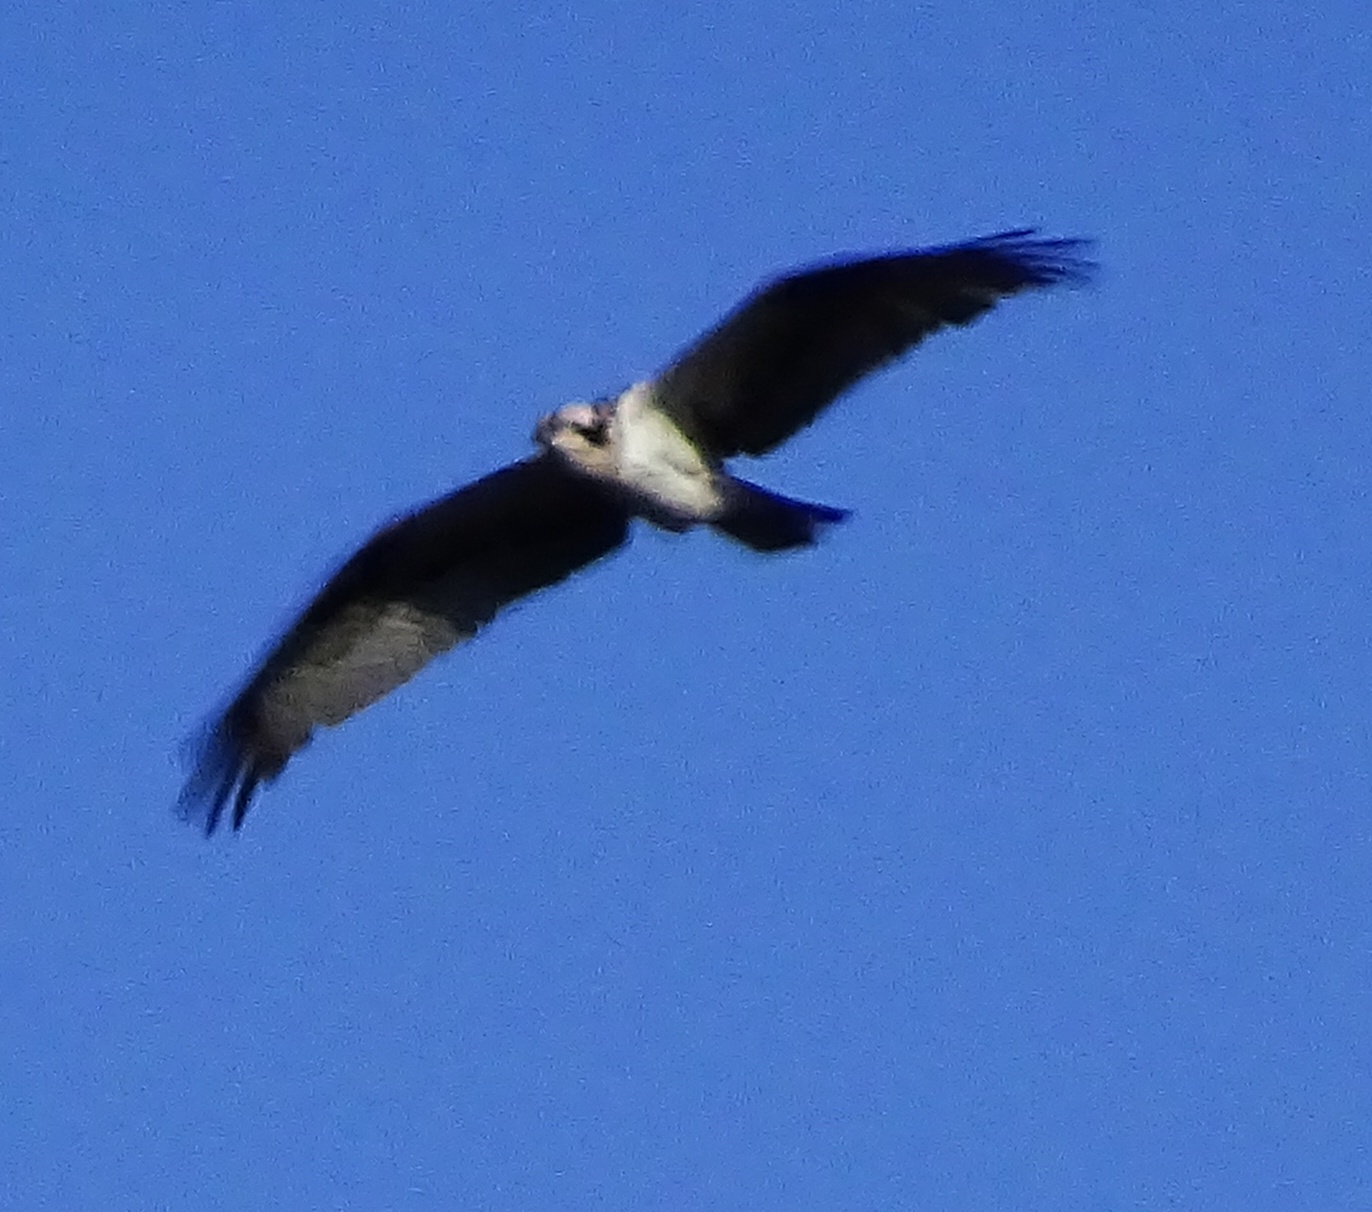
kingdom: Animalia
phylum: Chordata
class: Aves
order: Accipitriformes
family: Pandionidae
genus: Pandion
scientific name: Pandion haliaetus
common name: Osprey
